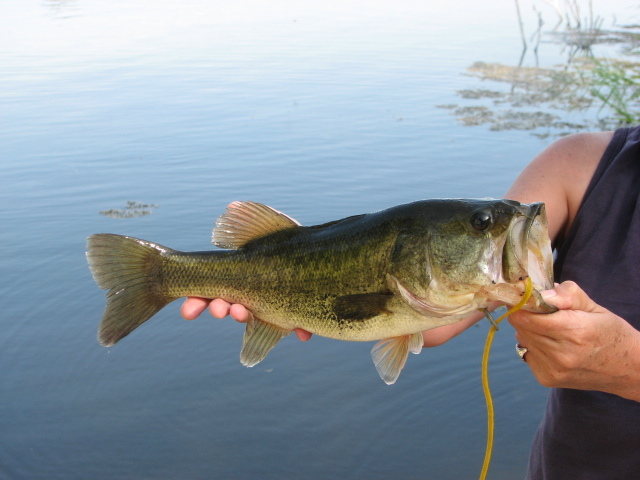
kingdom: Animalia
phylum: Chordata
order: Perciformes
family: Centrarchidae
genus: Micropterus
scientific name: Micropterus
